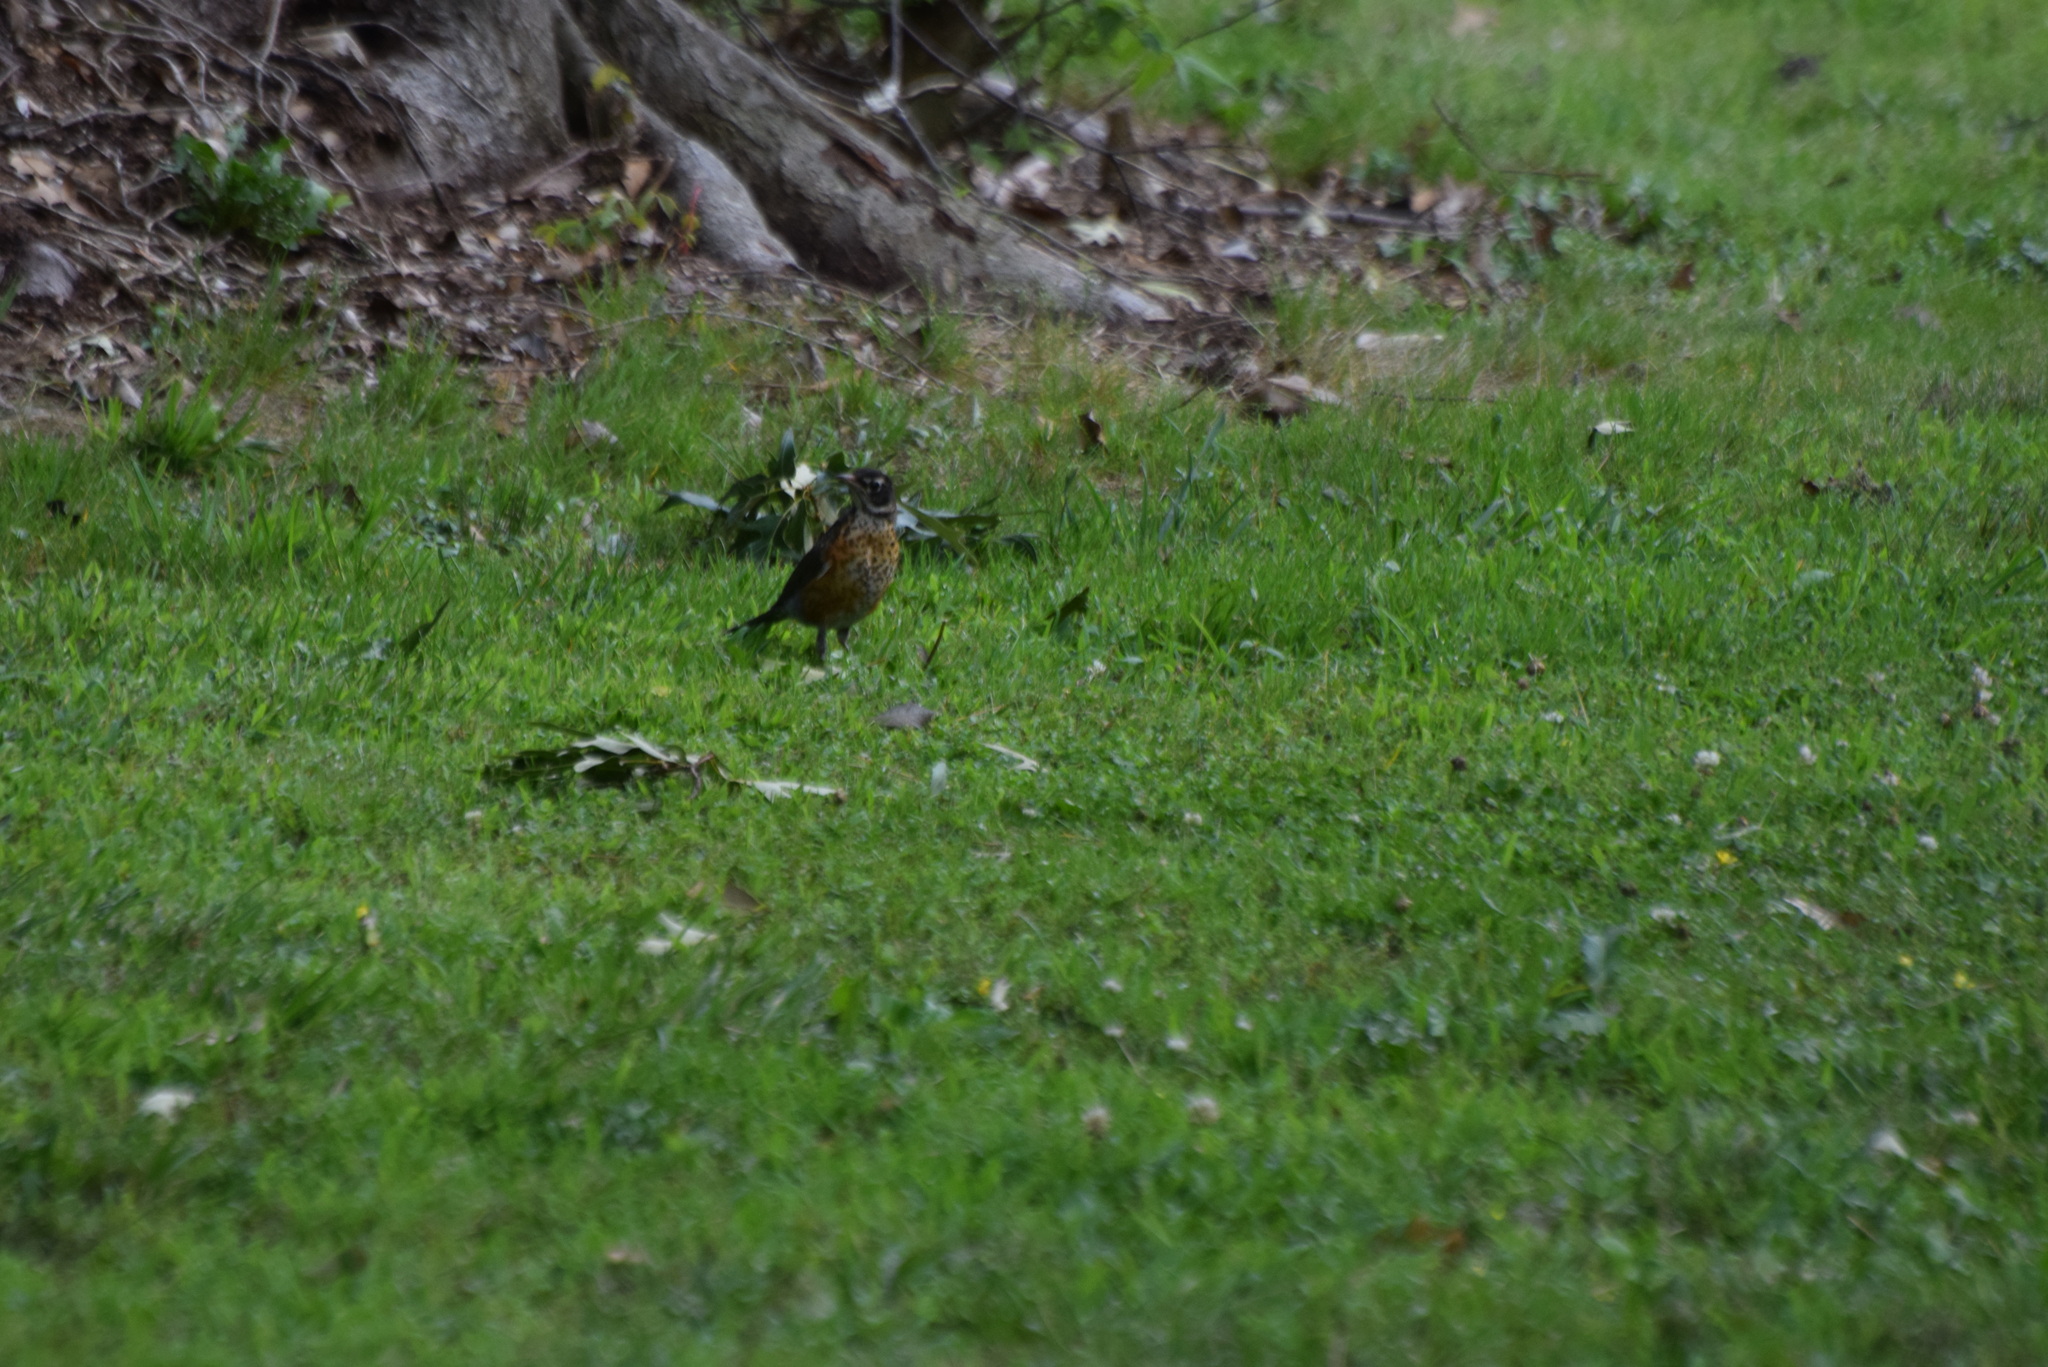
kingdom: Animalia
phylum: Chordata
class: Aves
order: Passeriformes
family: Turdidae
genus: Turdus
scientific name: Turdus migratorius
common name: American robin
